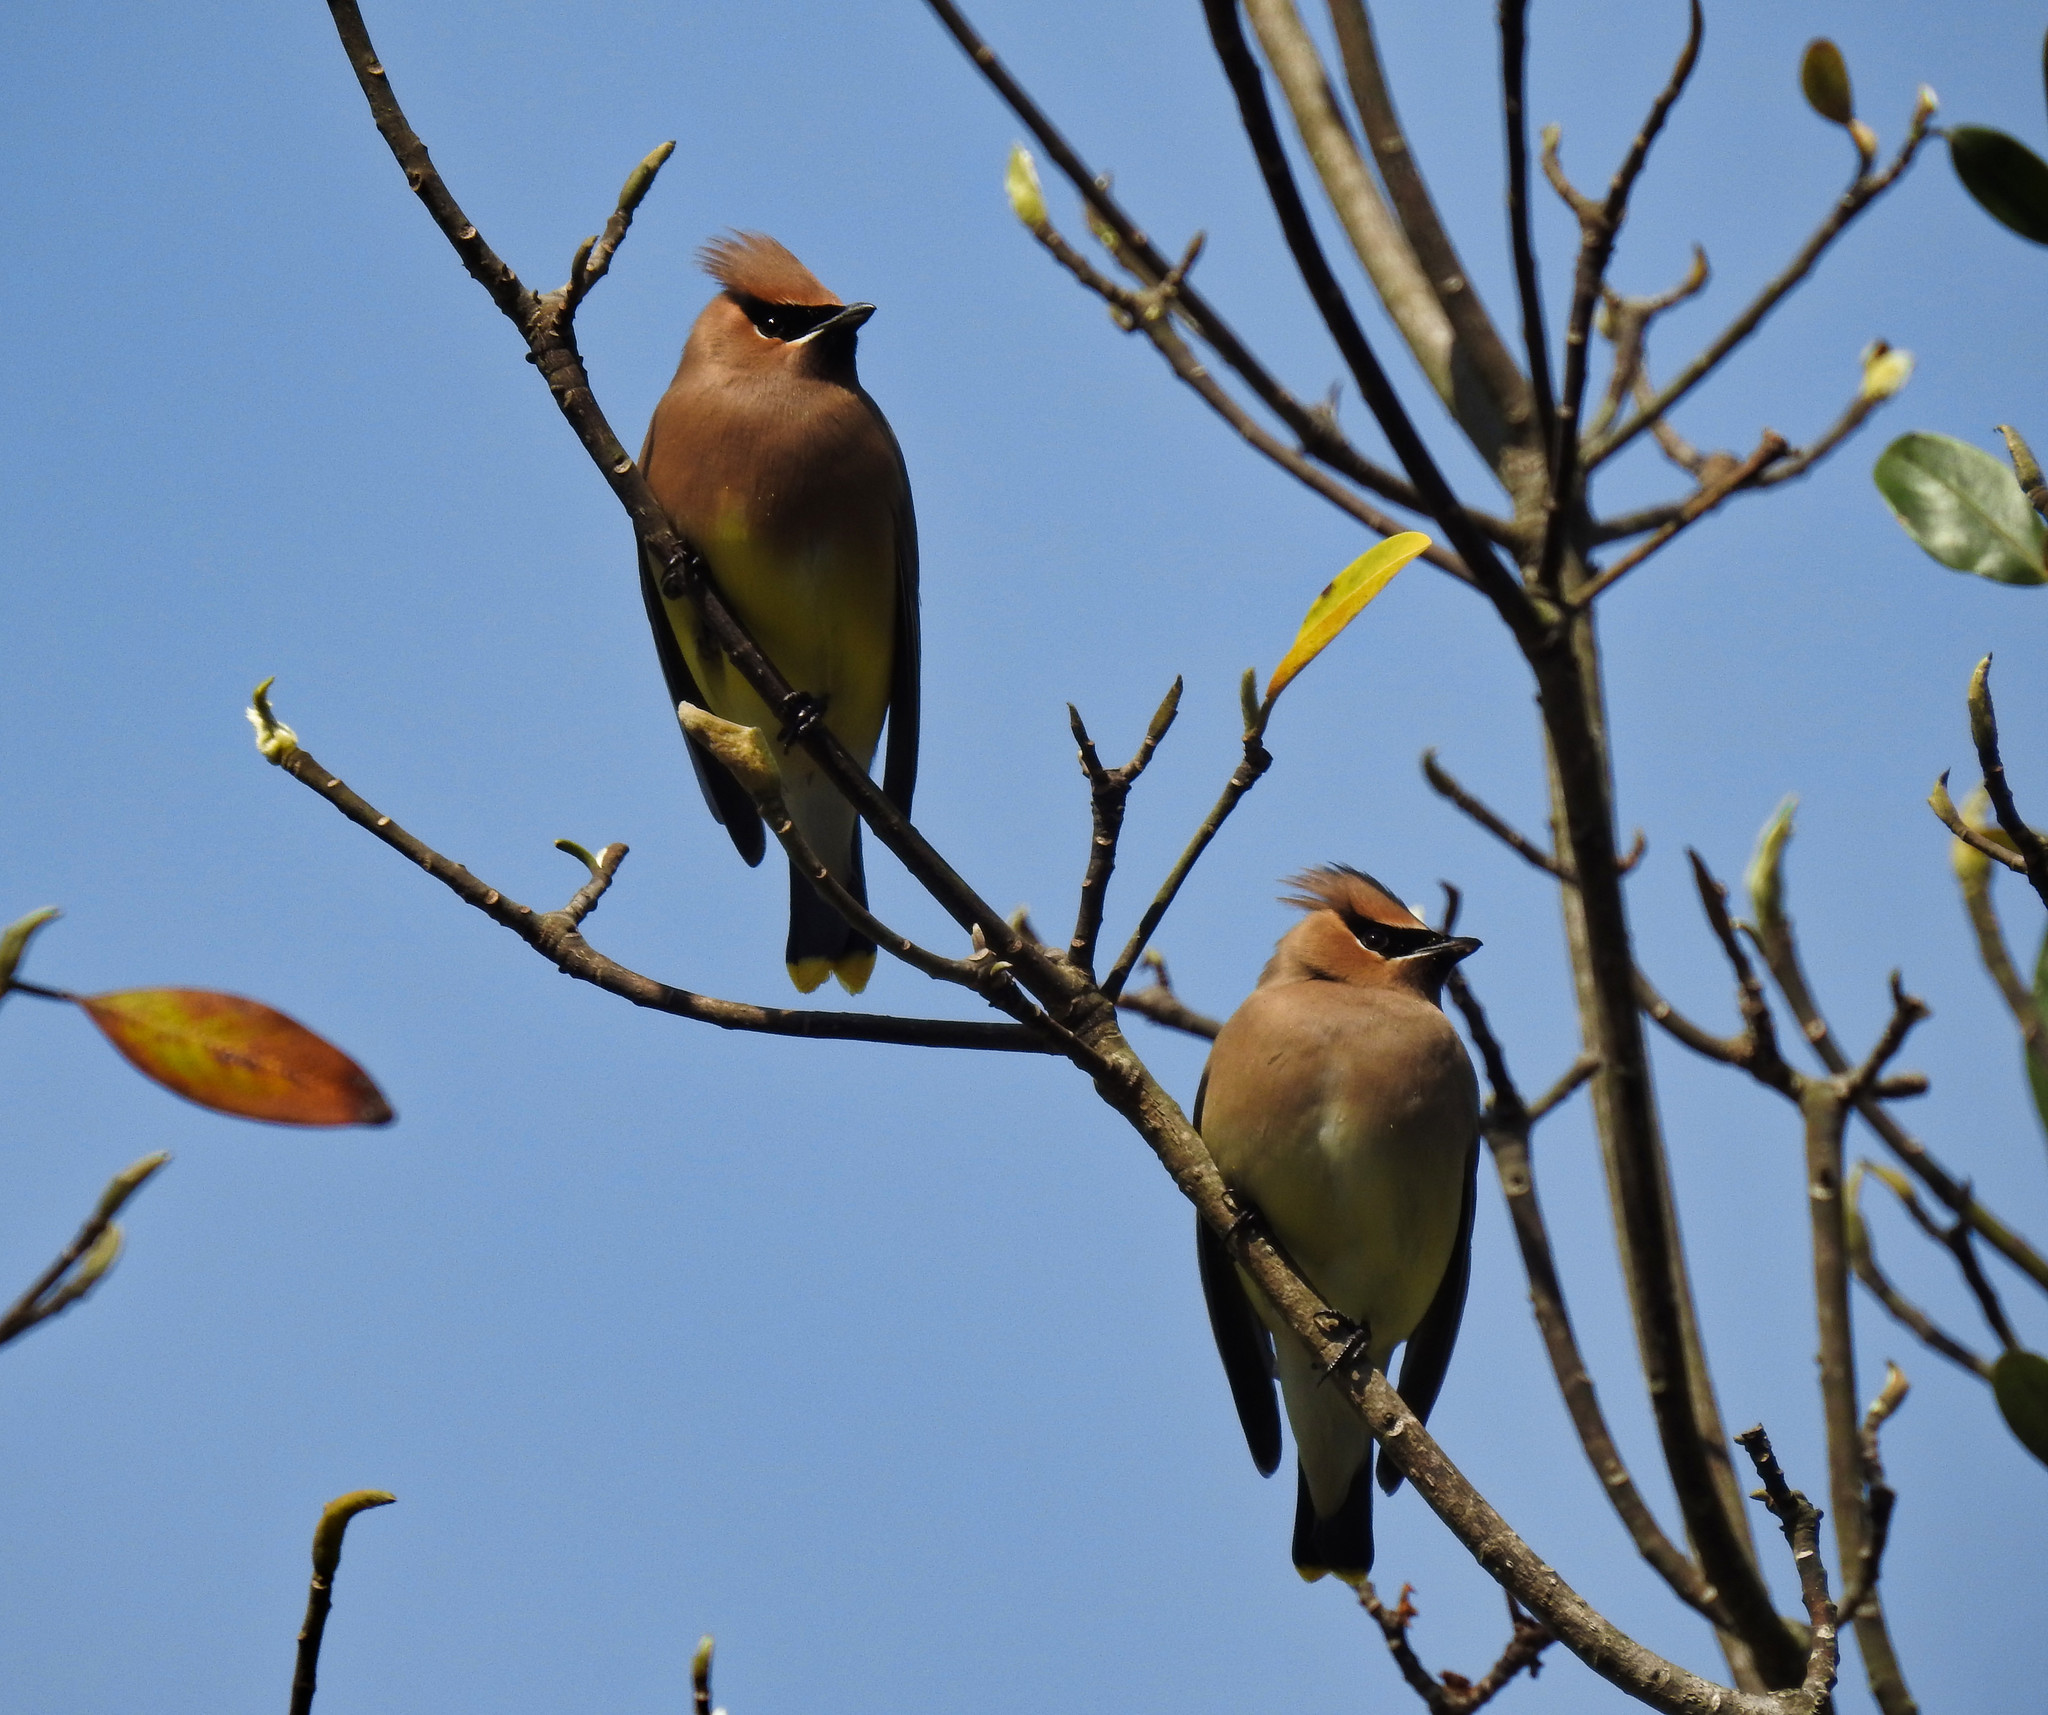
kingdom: Animalia
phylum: Chordata
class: Aves
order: Passeriformes
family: Bombycillidae
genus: Bombycilla
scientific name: Bombycilla cedrorum
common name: Cedar waxwing
